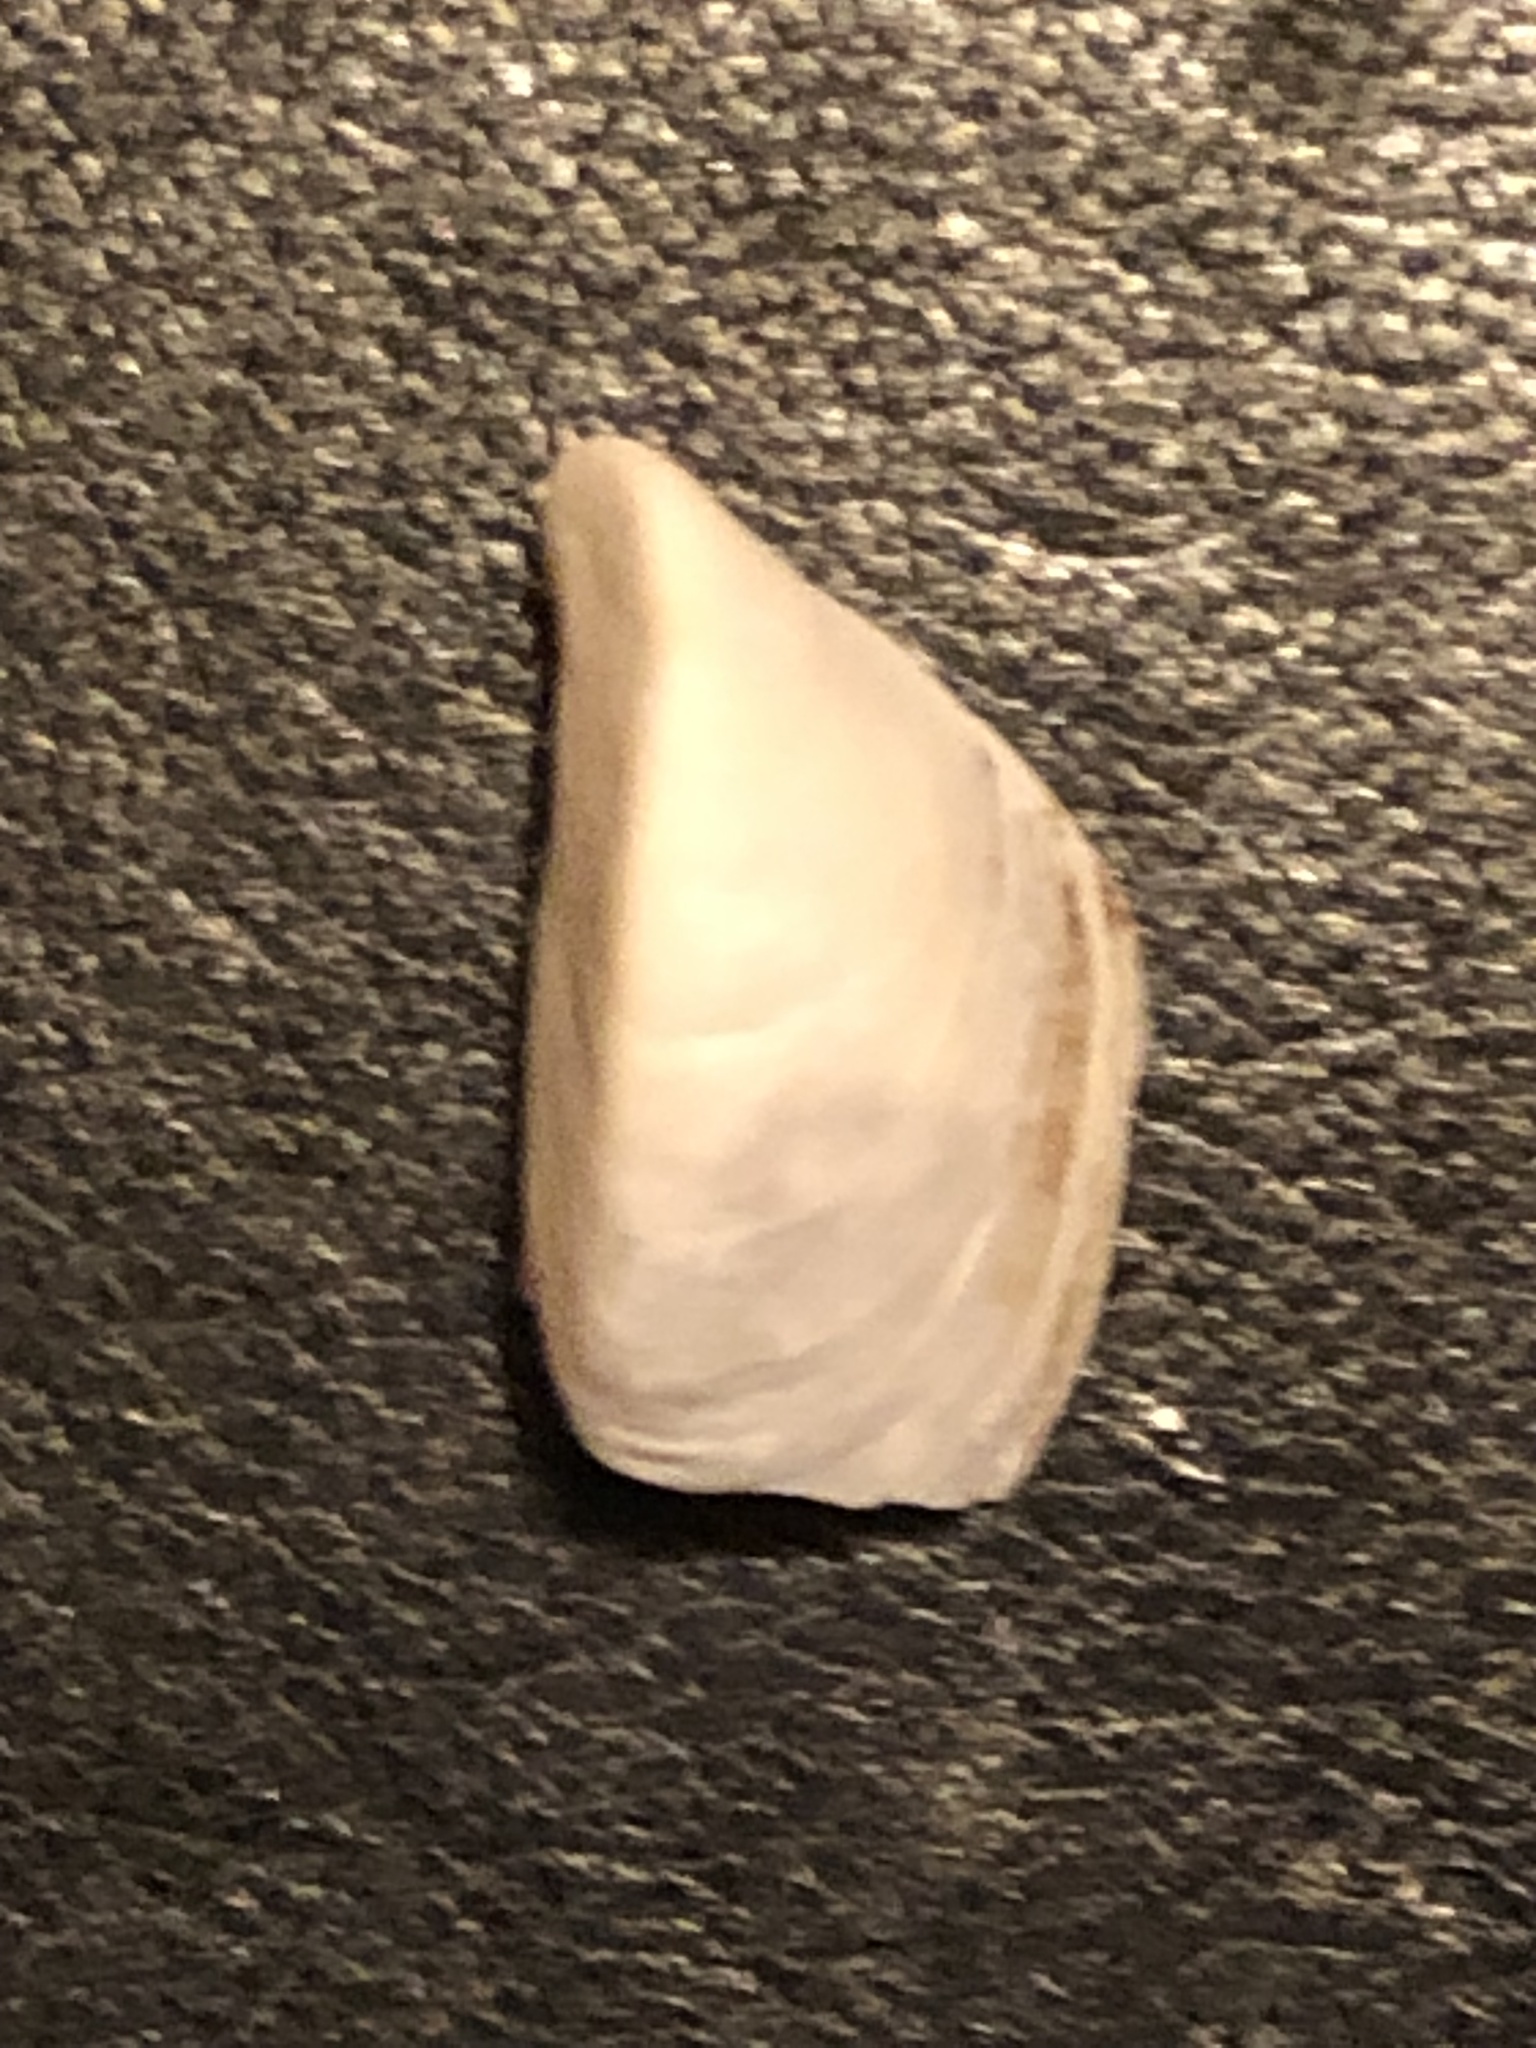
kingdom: Animalia
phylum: Mollusca
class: Bivalvia
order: Myida
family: Dreissenidae
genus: Dreissena
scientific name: Dreissena polymorpha
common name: Zebra mussel
